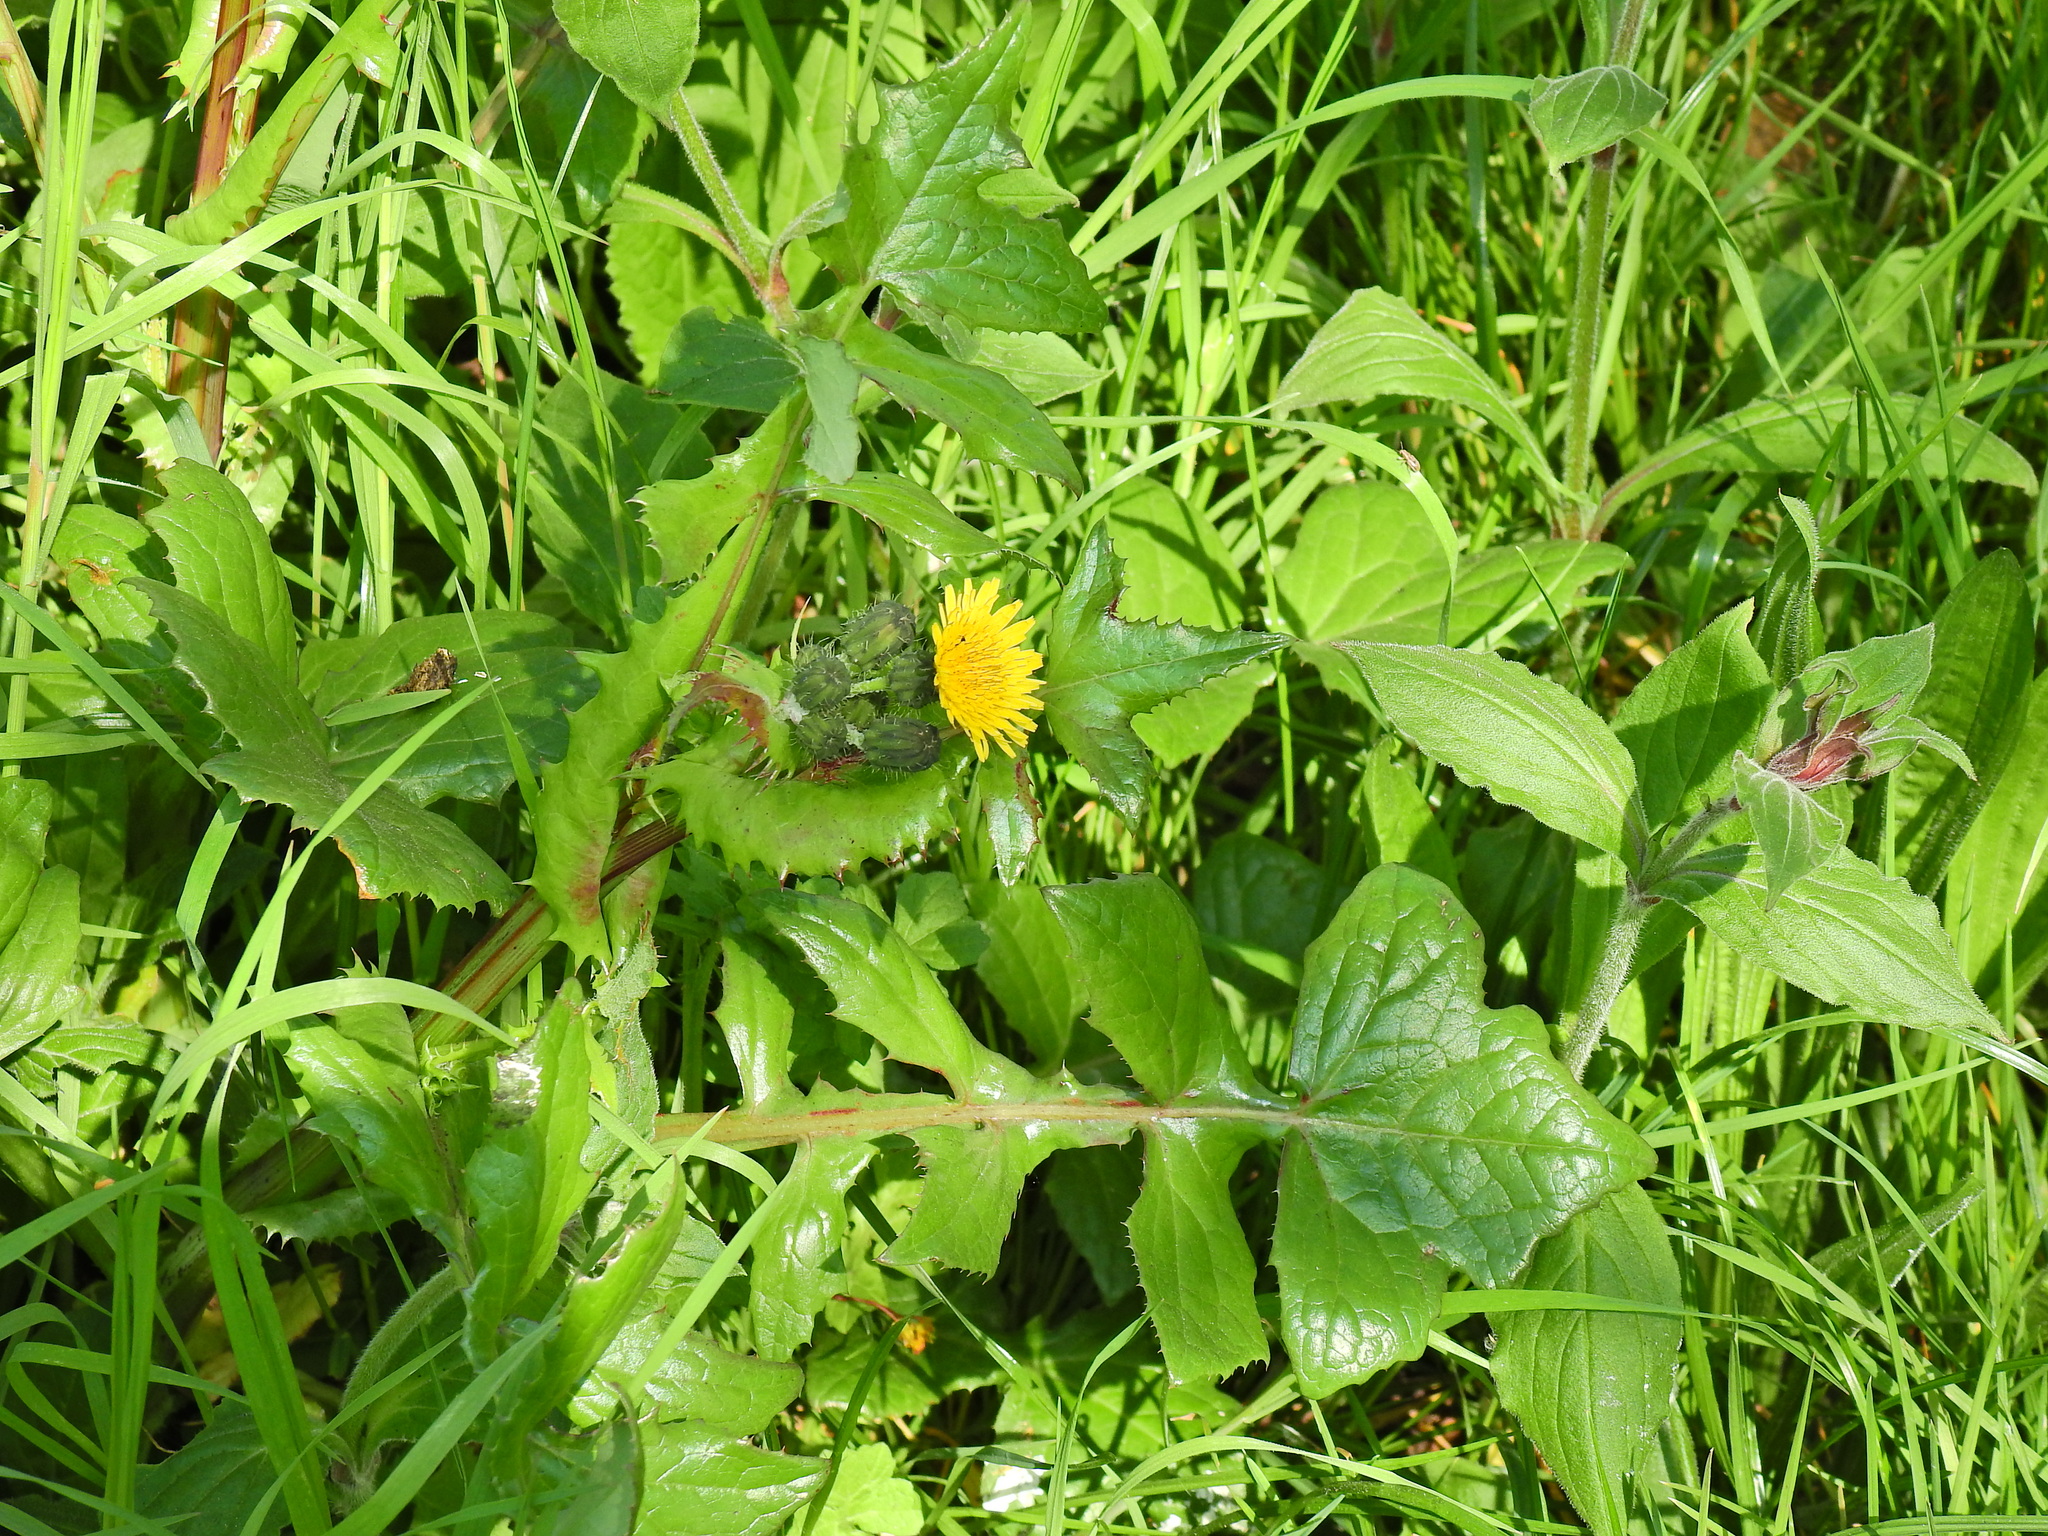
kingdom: Plantae
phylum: Tracheophyta
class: Magnoliopsida
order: Asterales
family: Asteraceae
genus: Sonchus
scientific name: Sonchus oleraceus
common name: Common sowthistle
